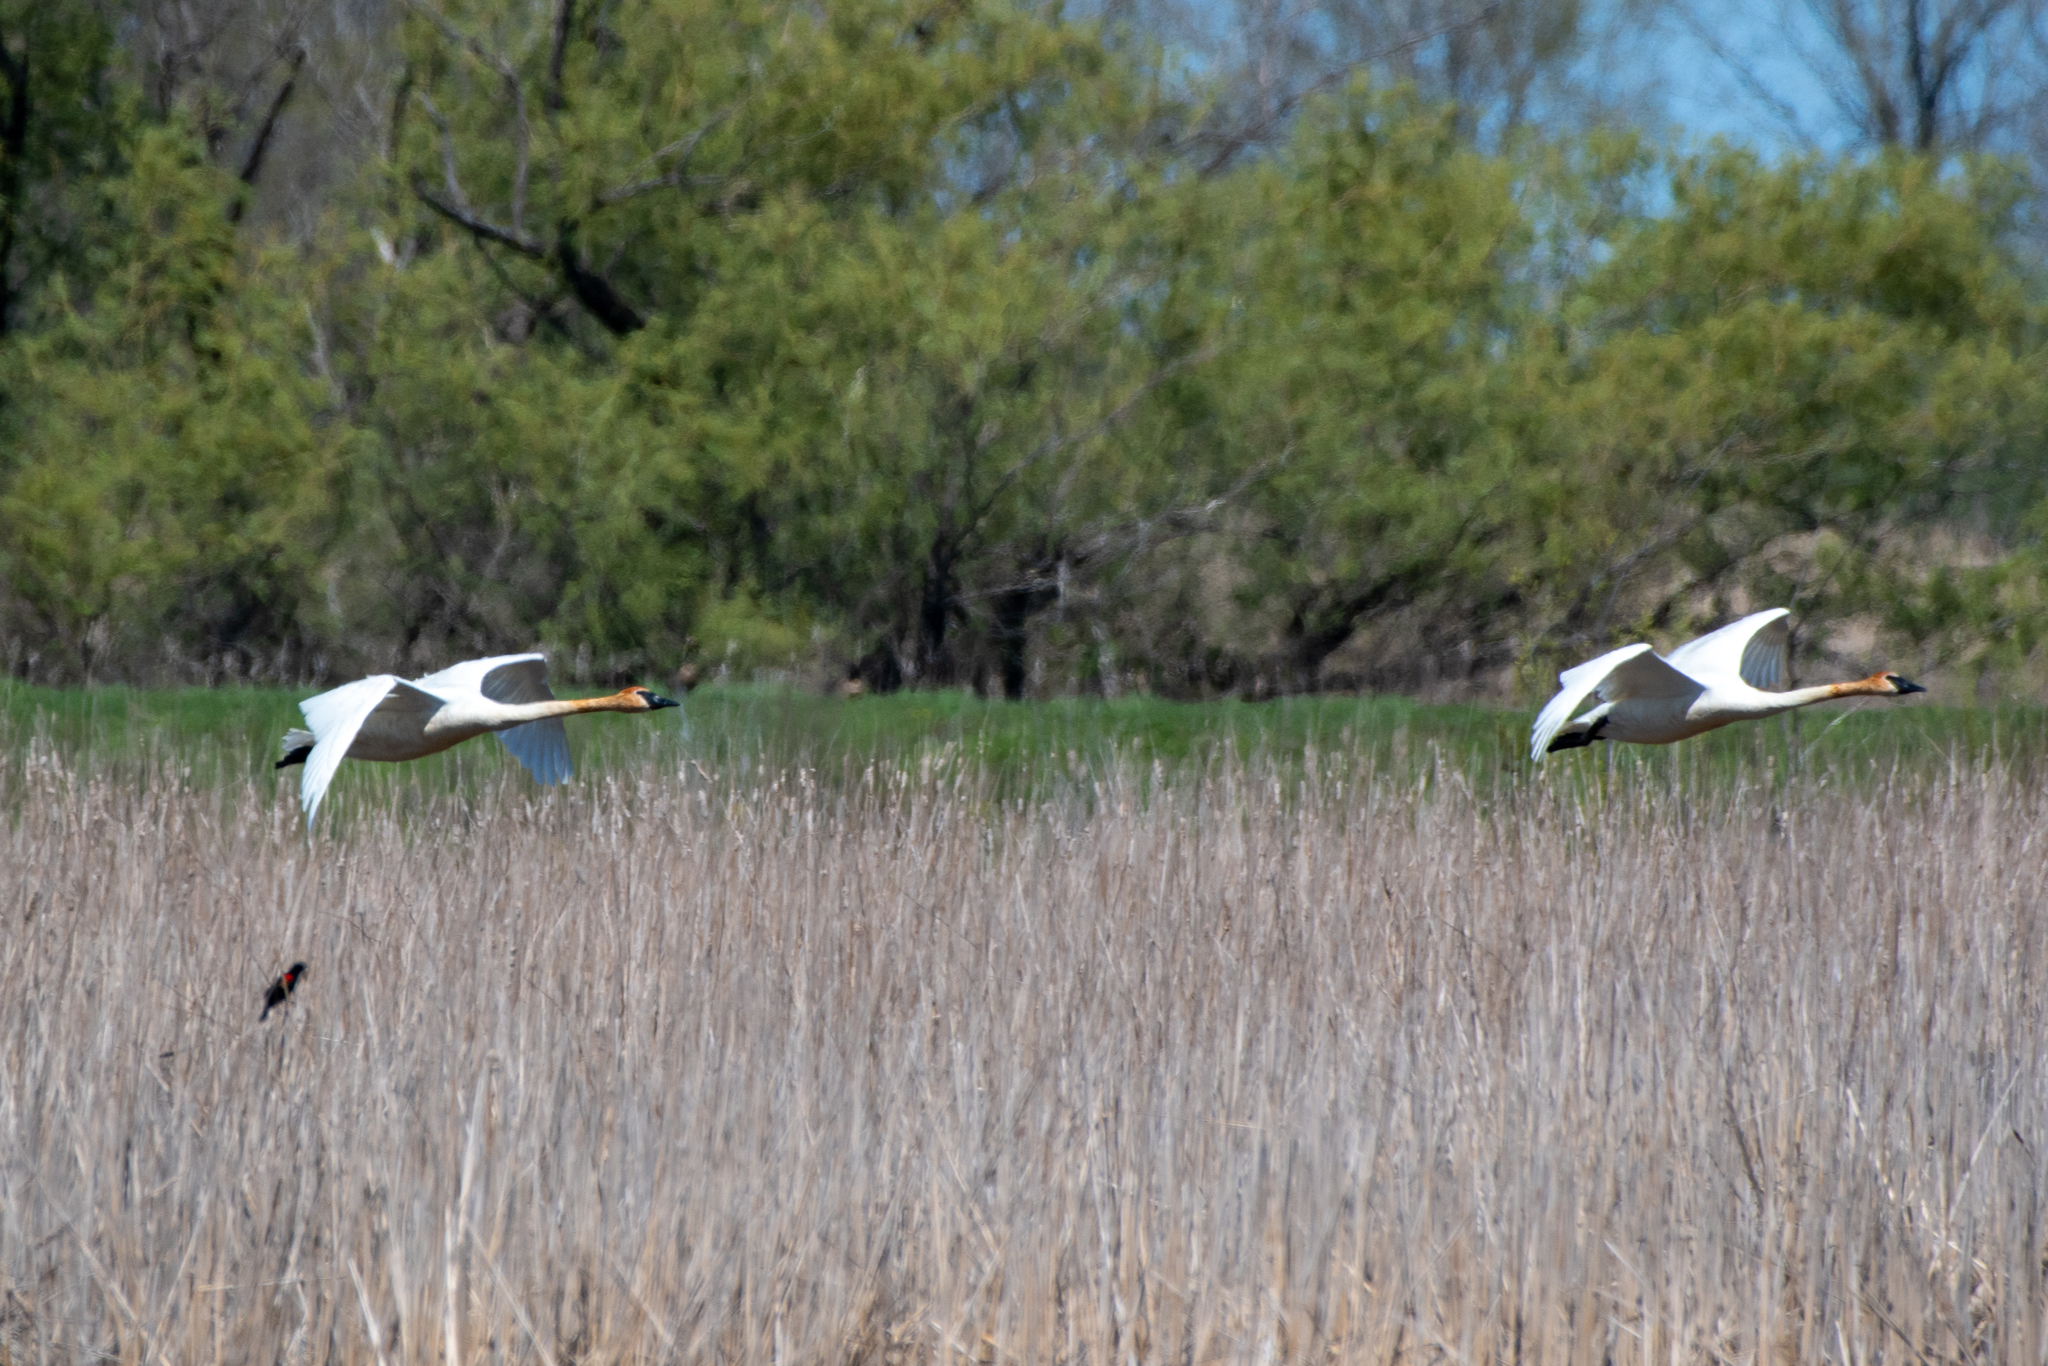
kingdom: Animalia
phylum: Chordata
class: Aves
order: Anseriformes
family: Anatidae
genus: Cygnus
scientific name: Cygnus buccinator
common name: Trumpeter swan
